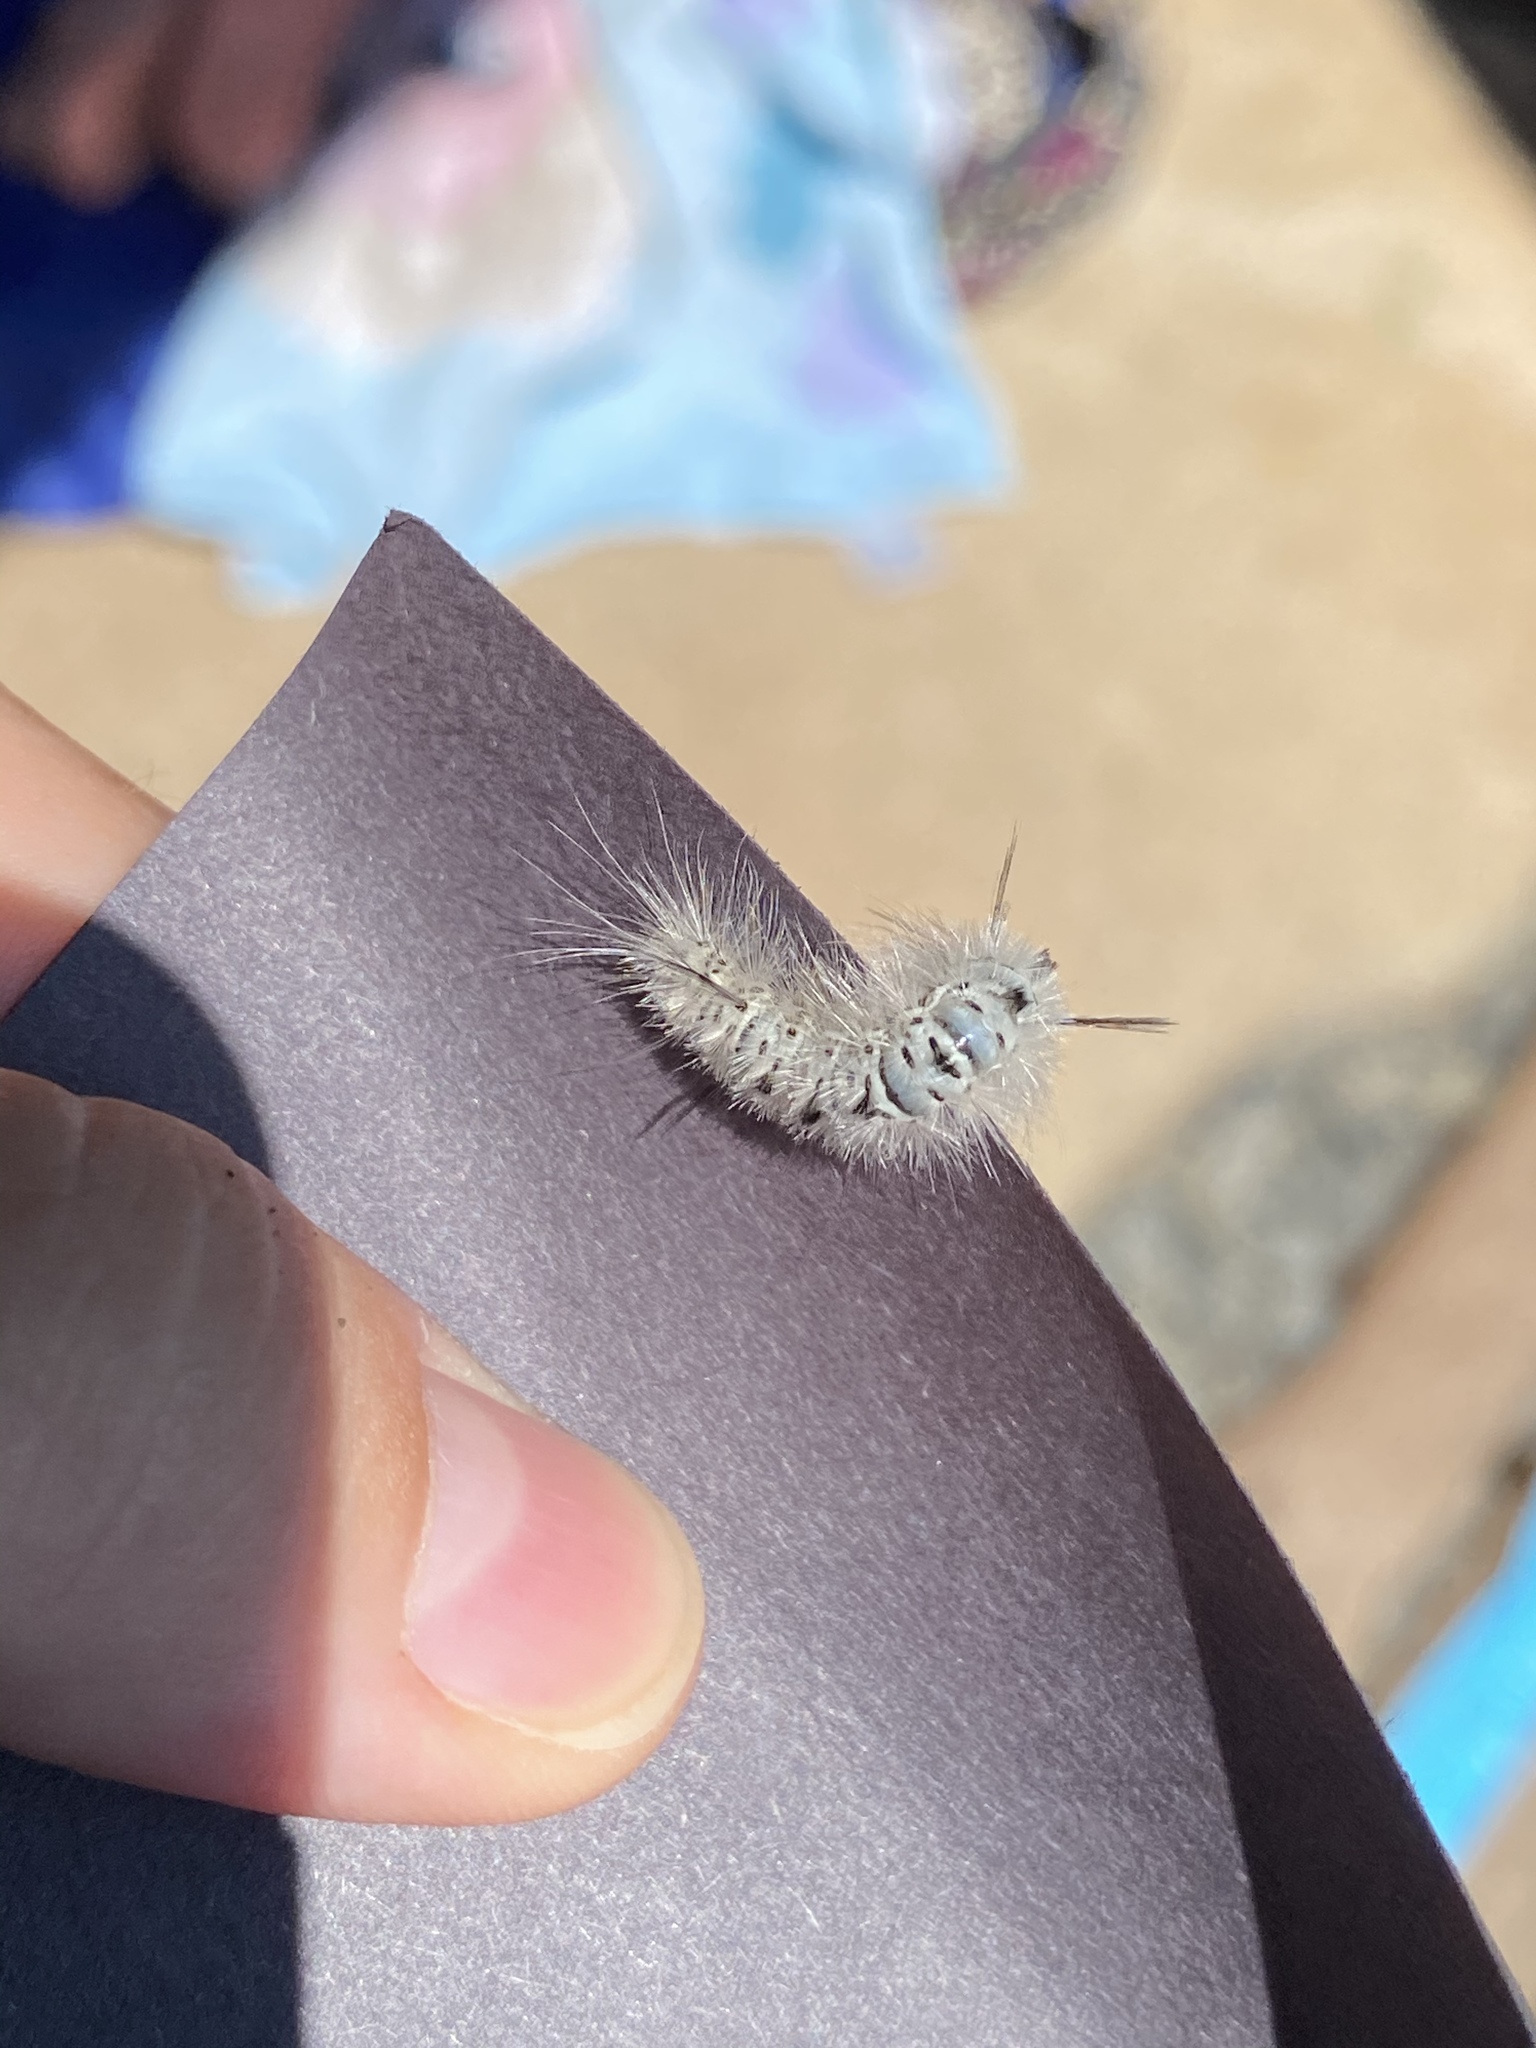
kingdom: Animalia
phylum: Arthropoda
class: Insecta
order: Lepidoptera
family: Erebidae
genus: Lophocampa
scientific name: Lophocampa caryae
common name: Hickory tussock moth
